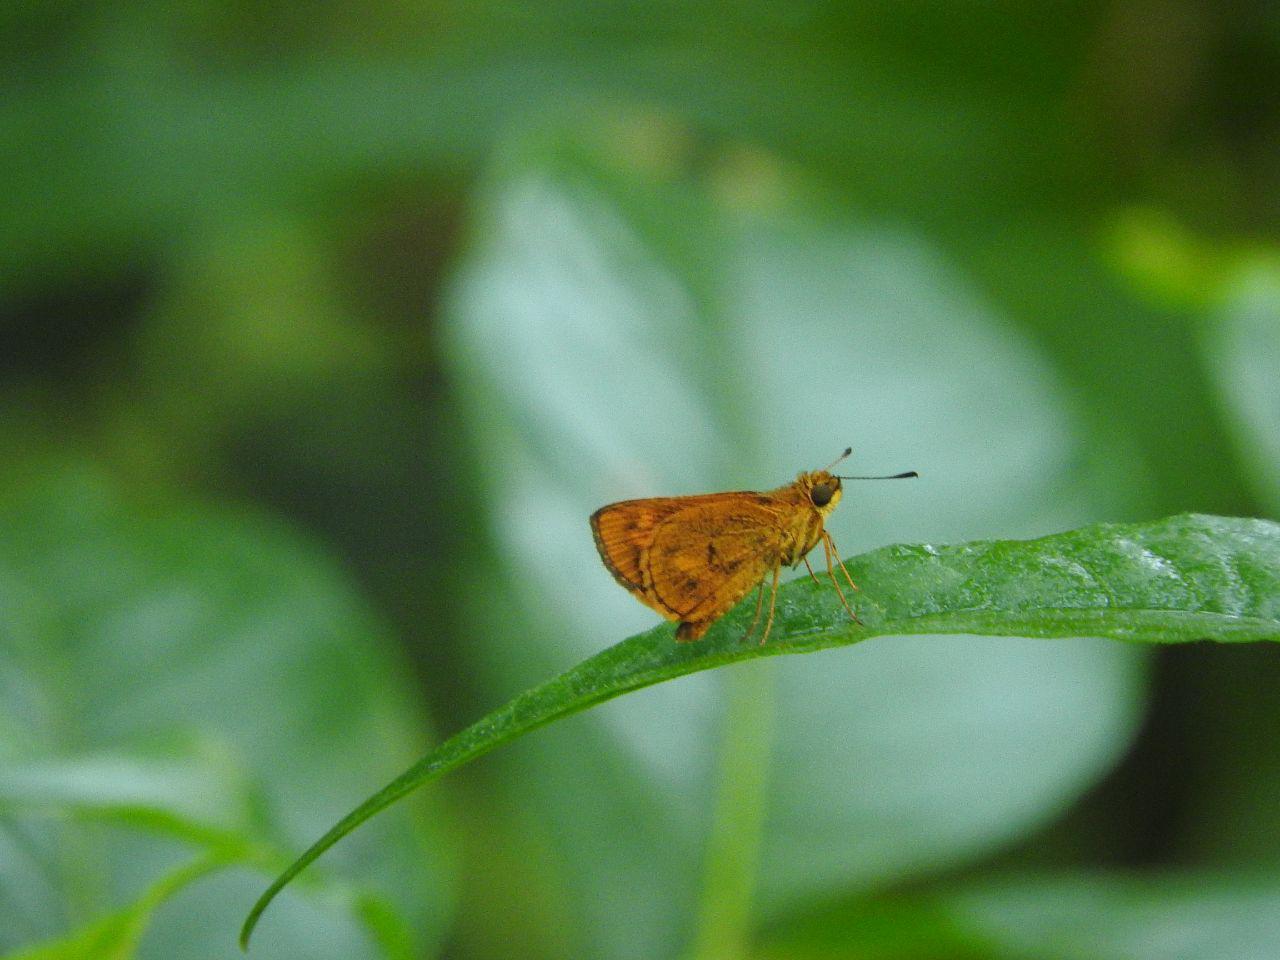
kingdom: Animalia
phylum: Arthropoda
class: Insecta
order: Lepidoptera
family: Hesperiidae
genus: Oriens
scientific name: Oriens gola
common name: Common dartlet
